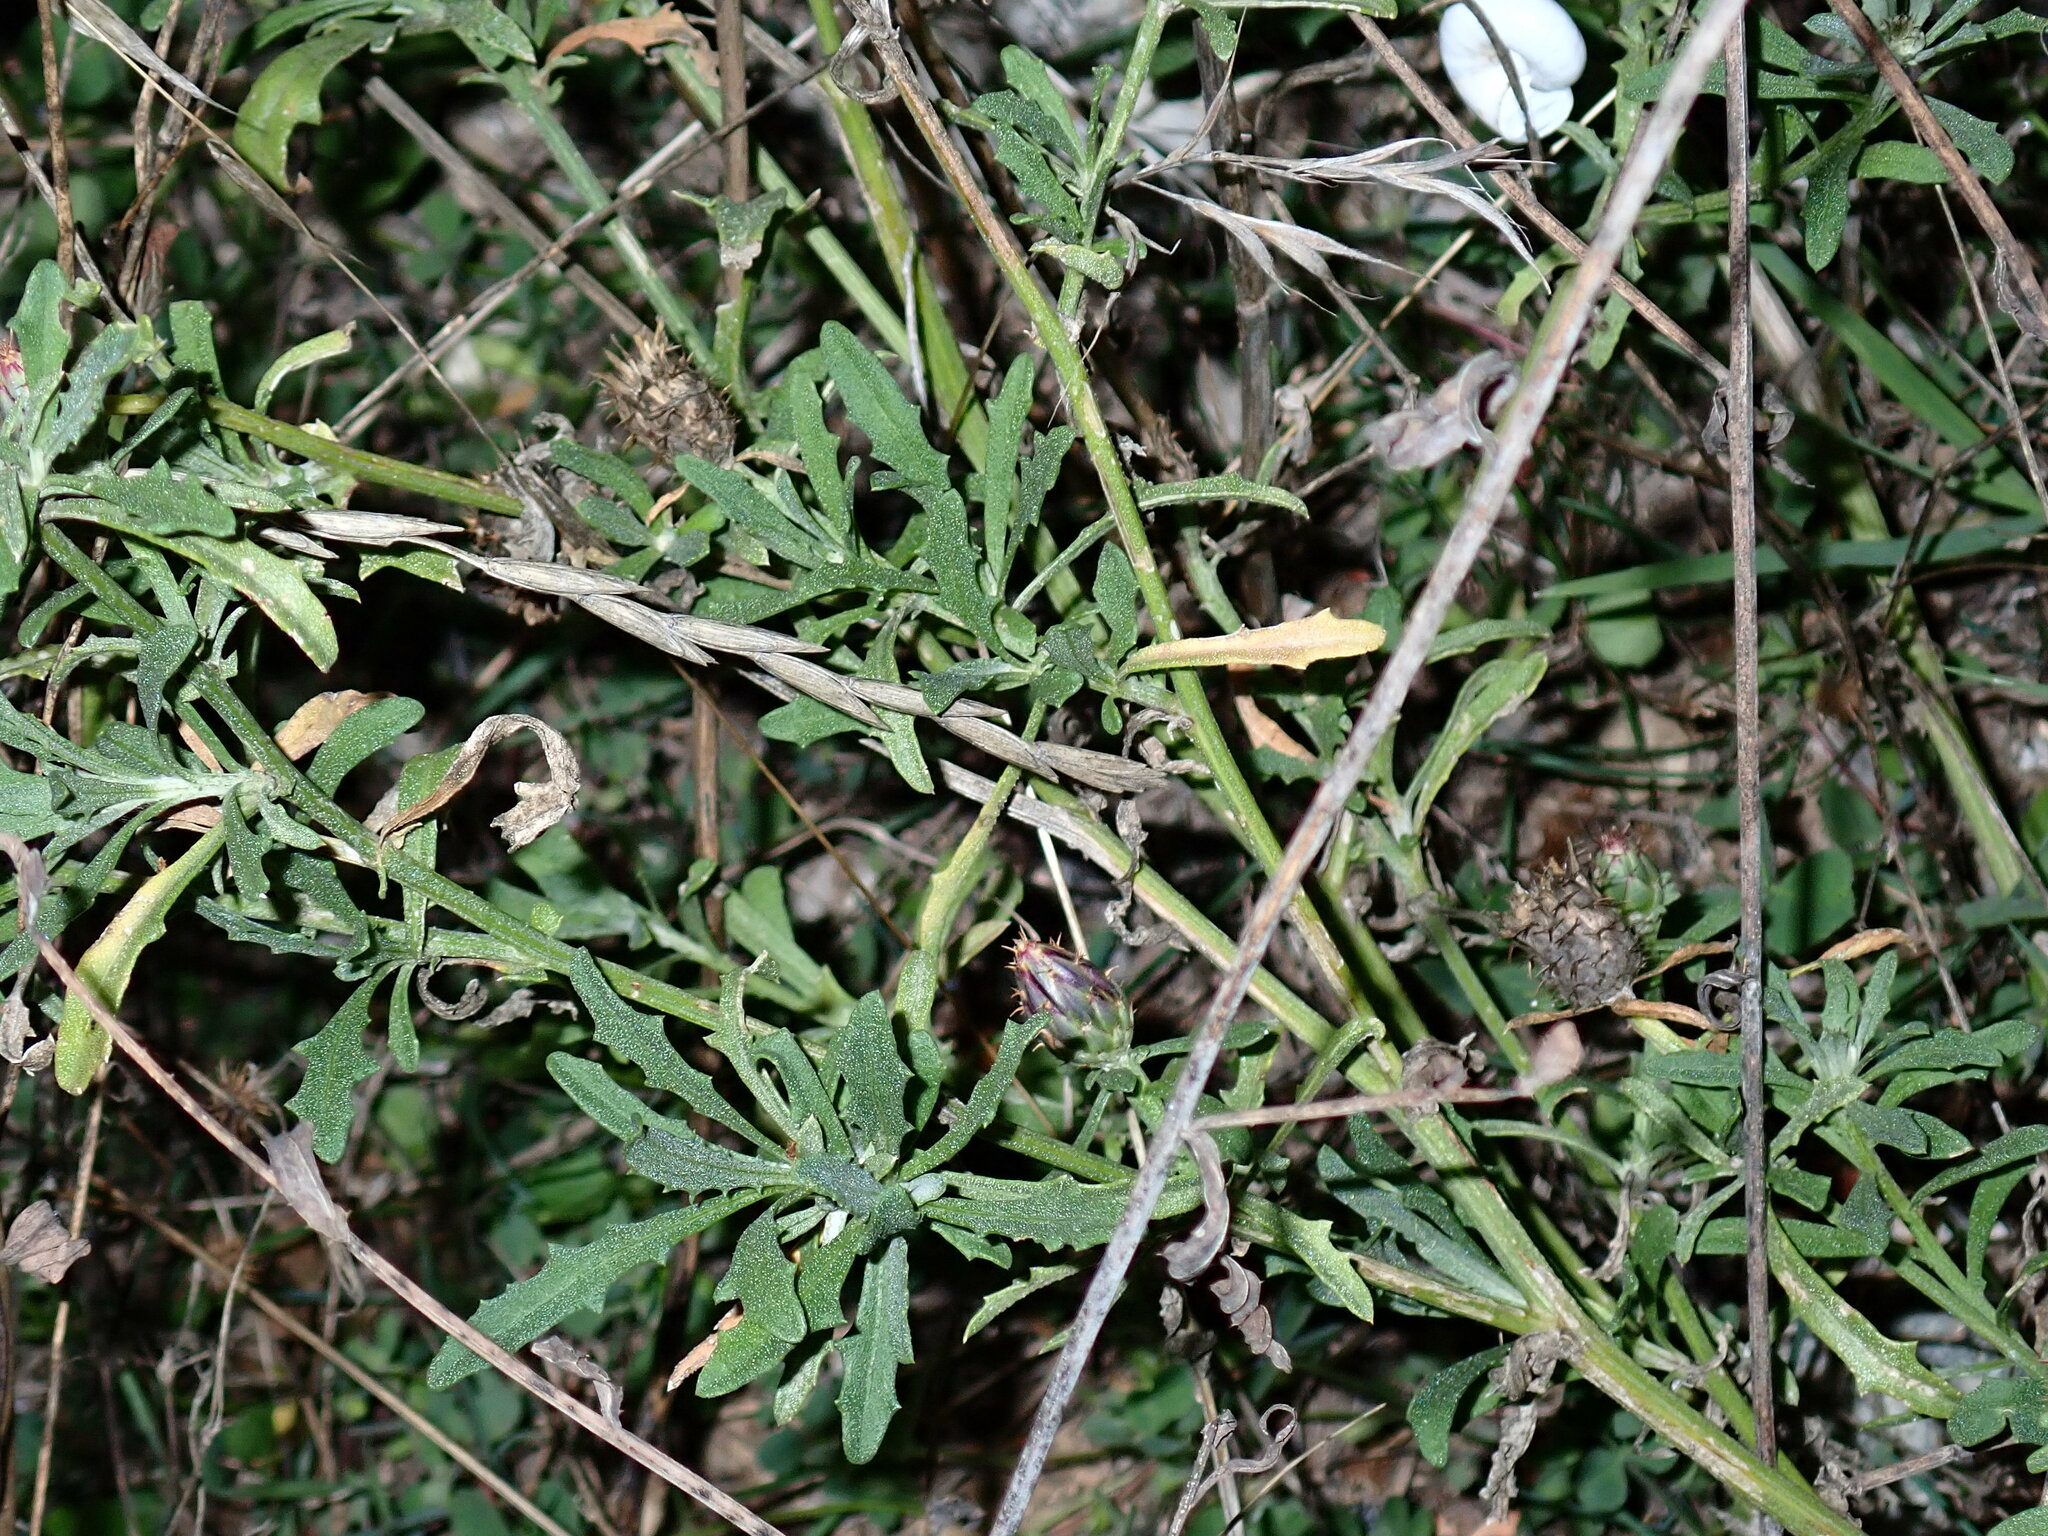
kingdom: Plantae
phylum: Tracheophyta
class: Magnoliopsida
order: Asterales
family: Asteraceae
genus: Centaurea
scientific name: Centaurea aspera
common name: Rough star-thistle
